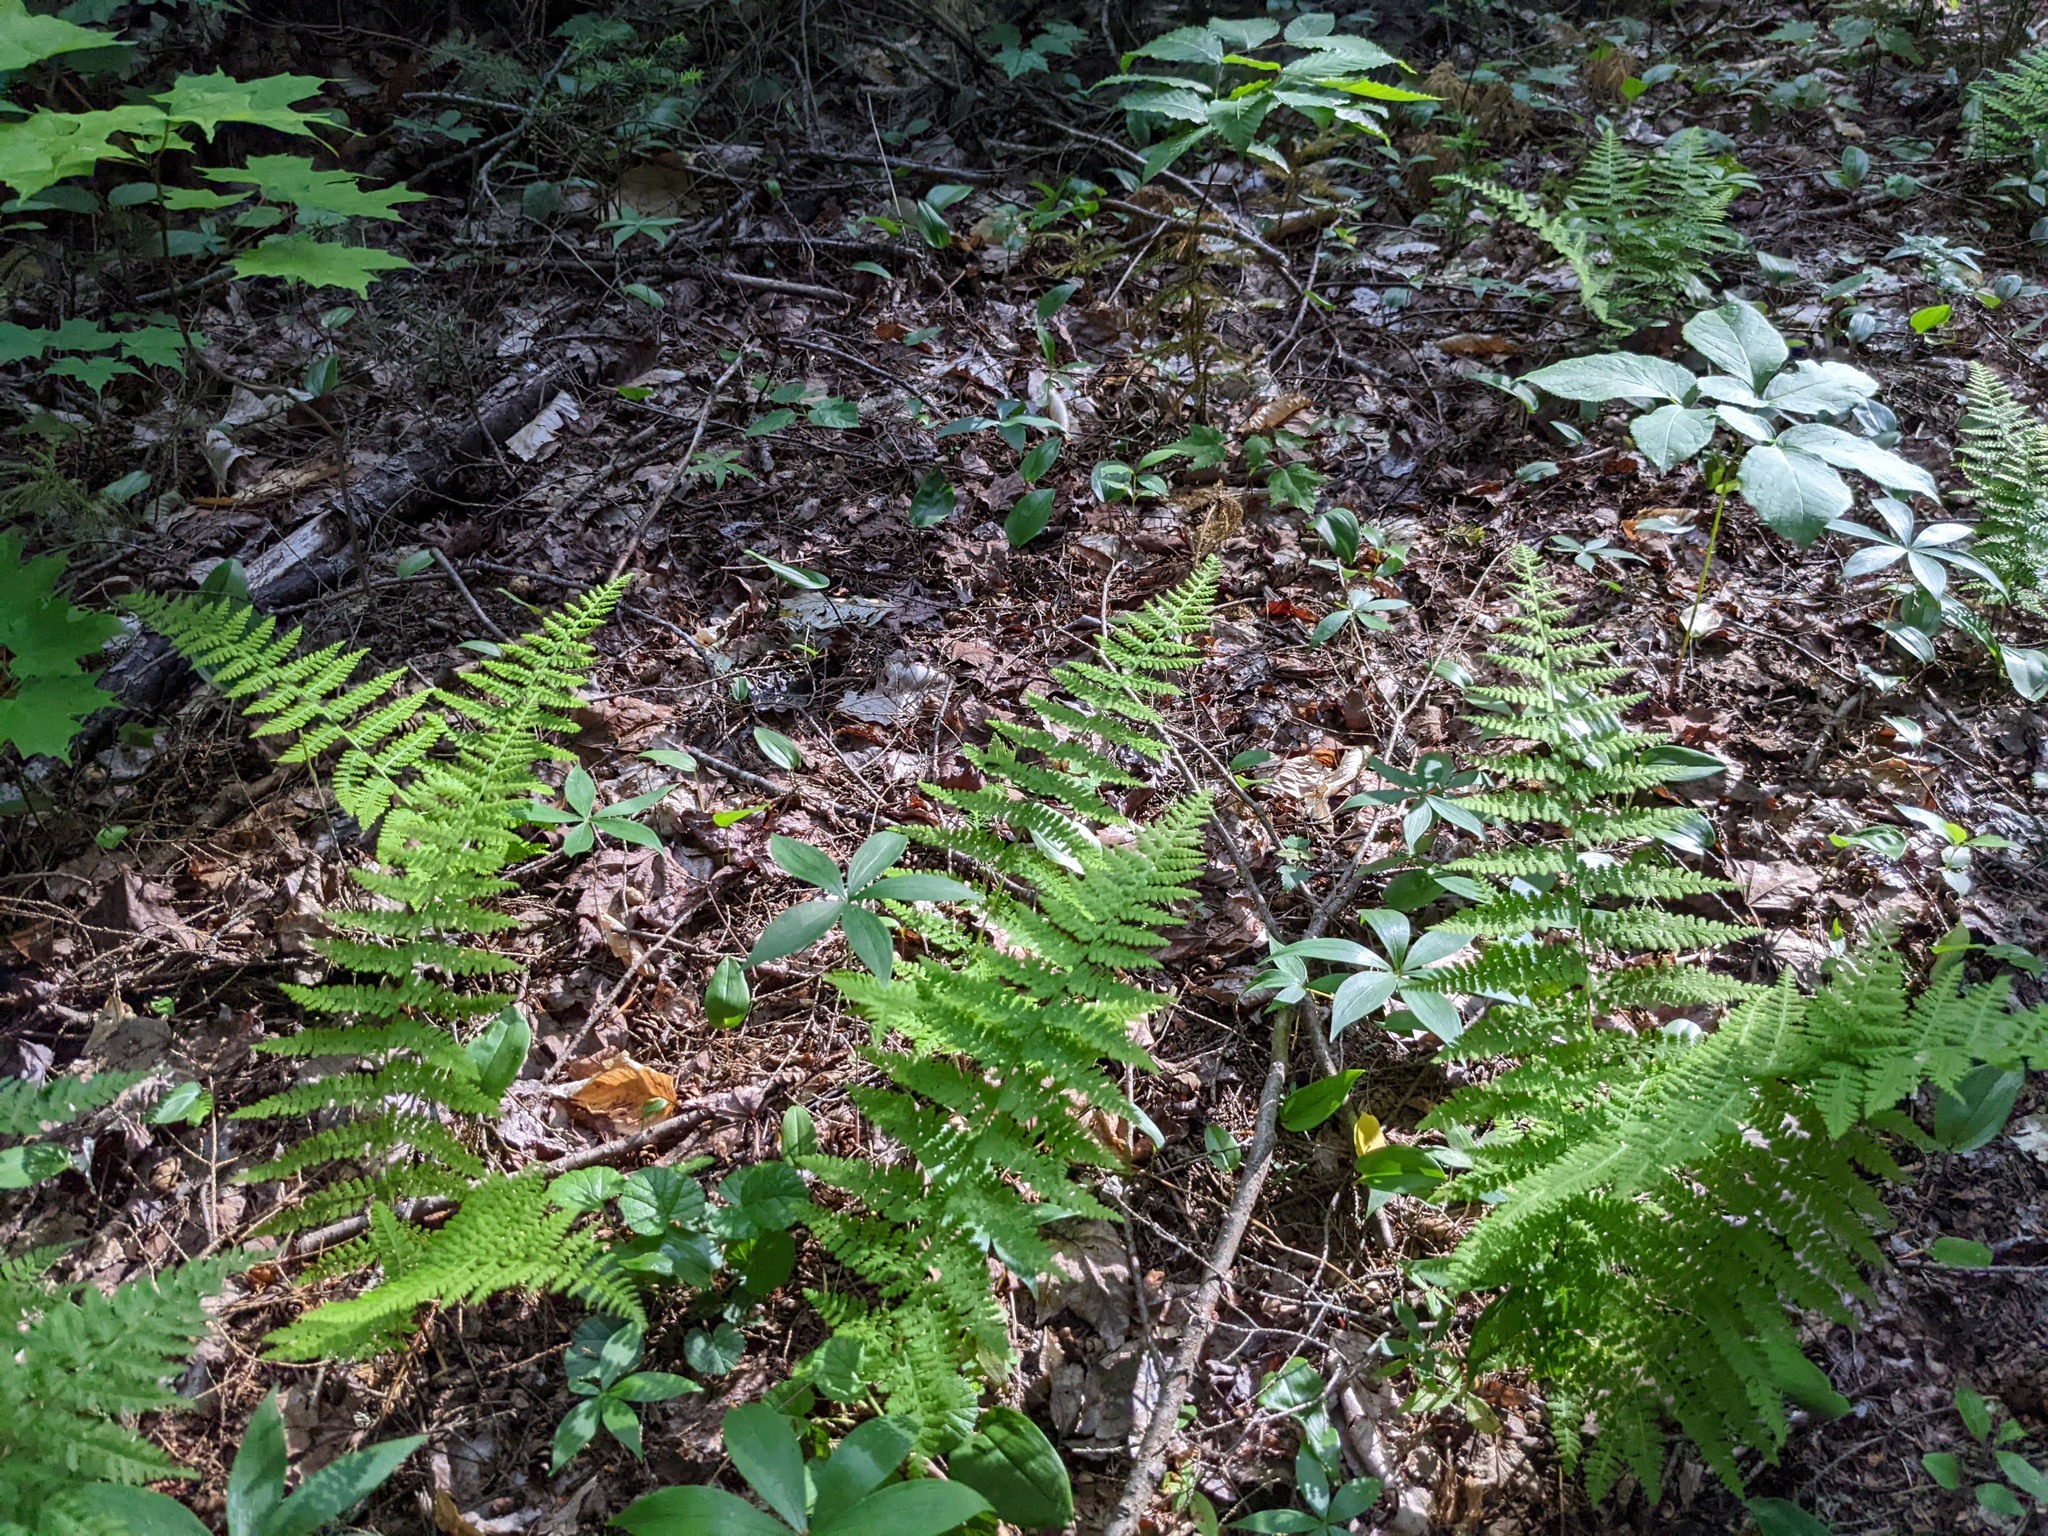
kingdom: Plantae
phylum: Tracheophyta
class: Polypodiopsida
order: Polypodiales
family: Dennstaedtiaceae
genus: Sitobolium
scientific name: Sitobolium punctilobum
